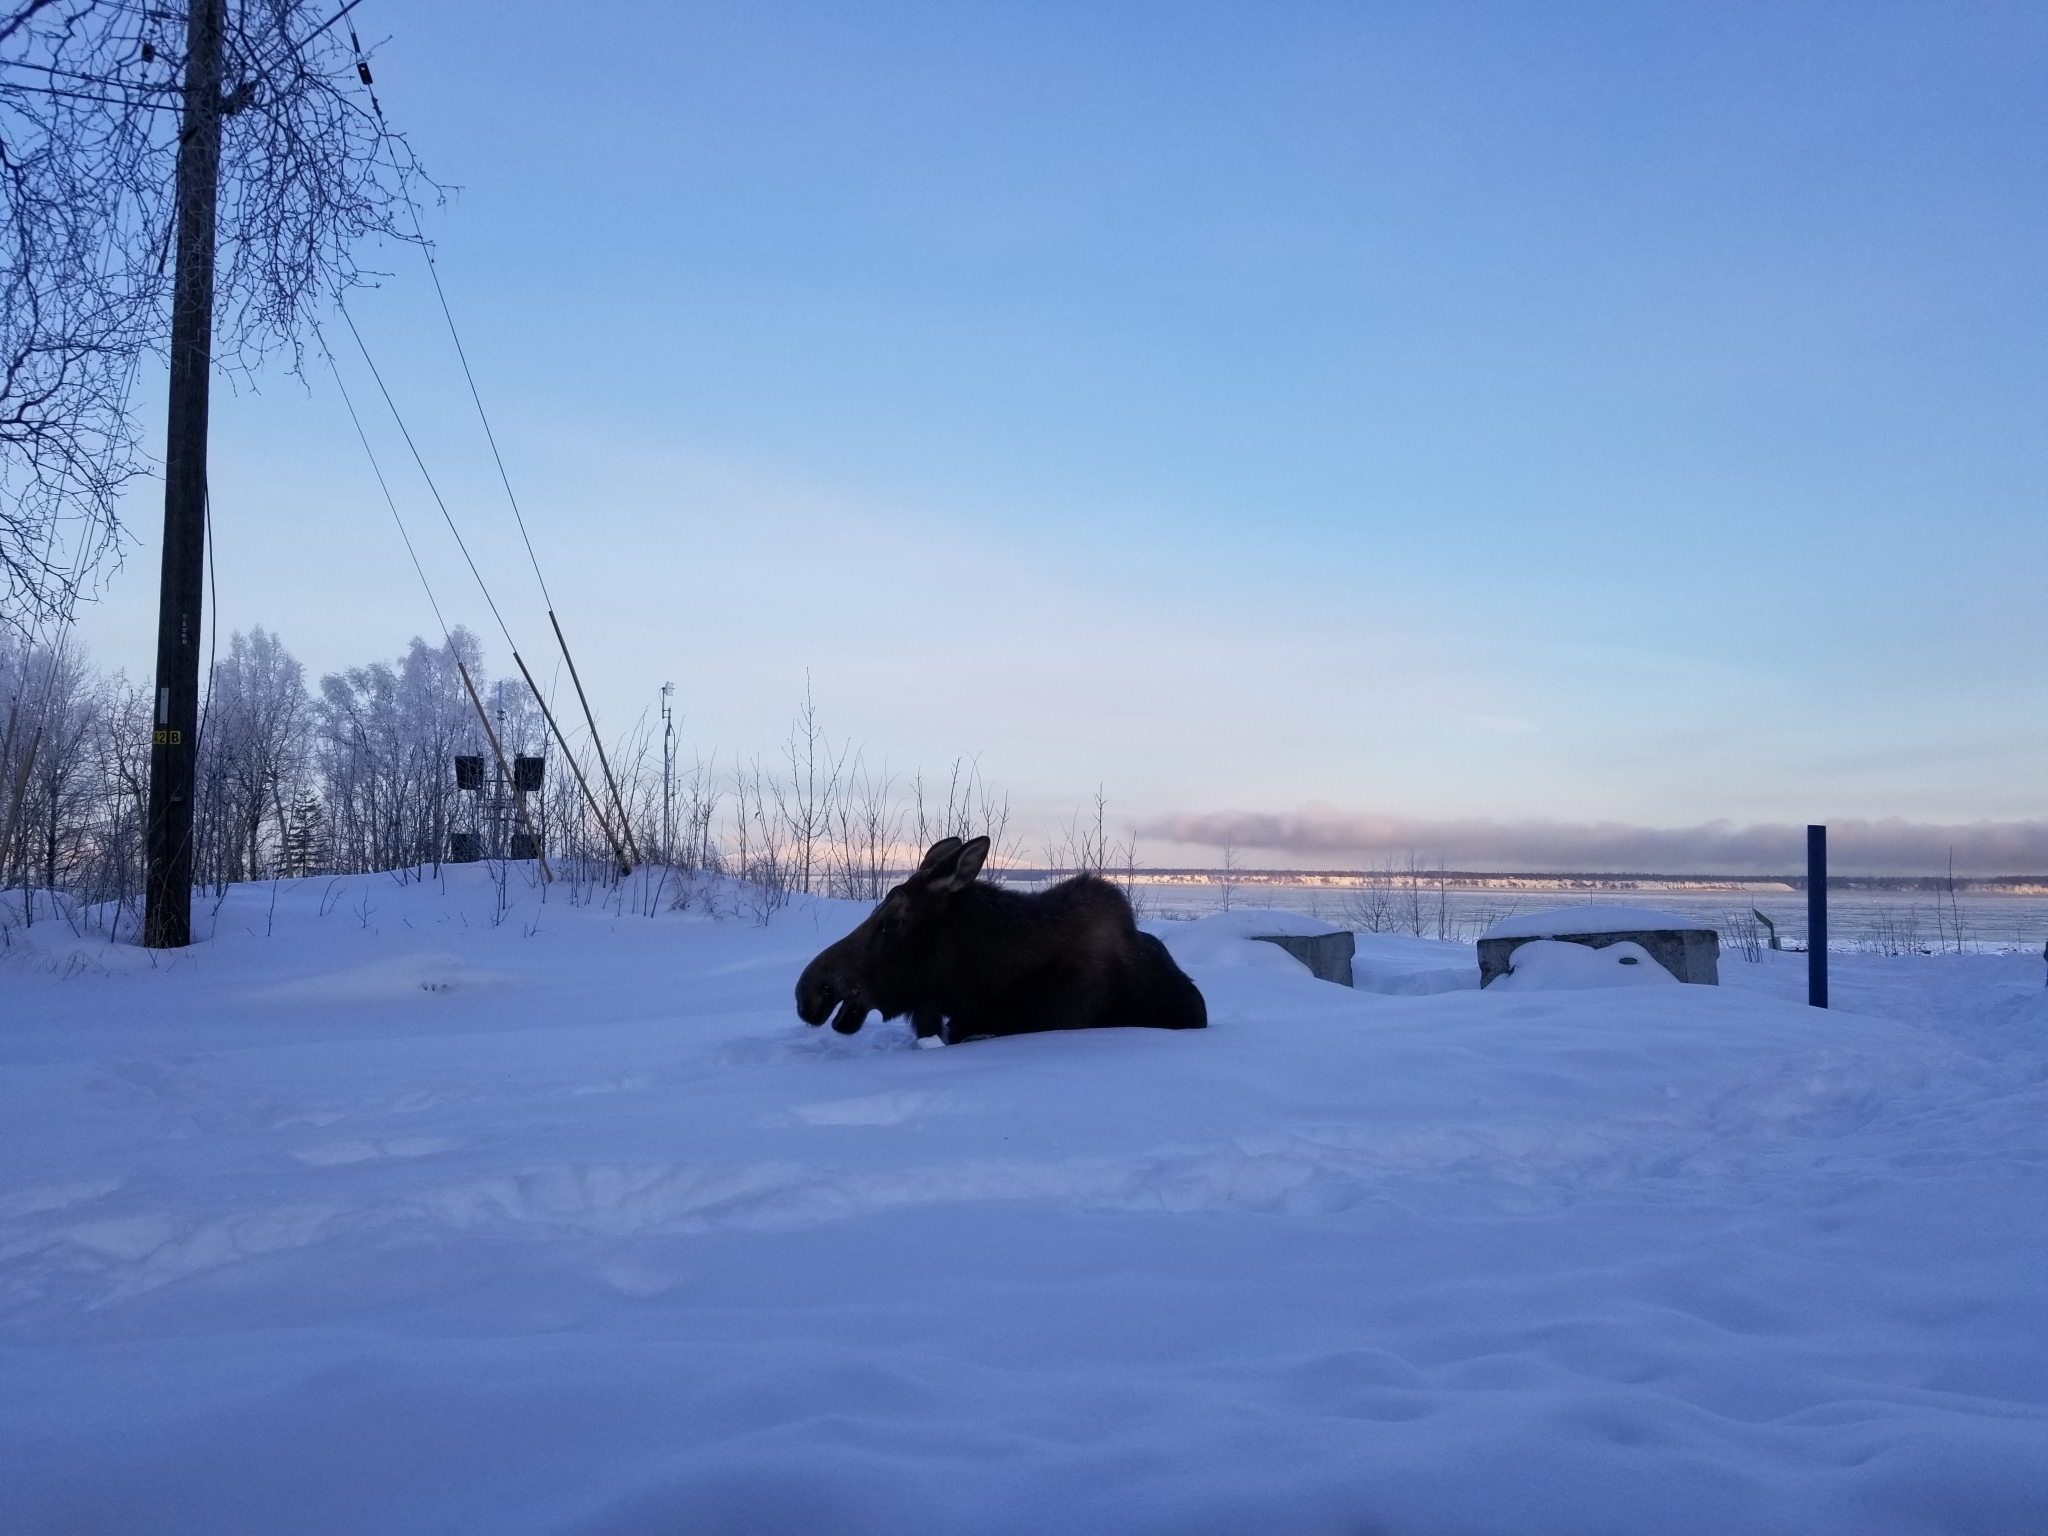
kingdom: Animalia
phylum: Chordata
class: Mammalia
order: Artiodactyla
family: Cervidae
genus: Alces
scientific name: Alces alces
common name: Moose
